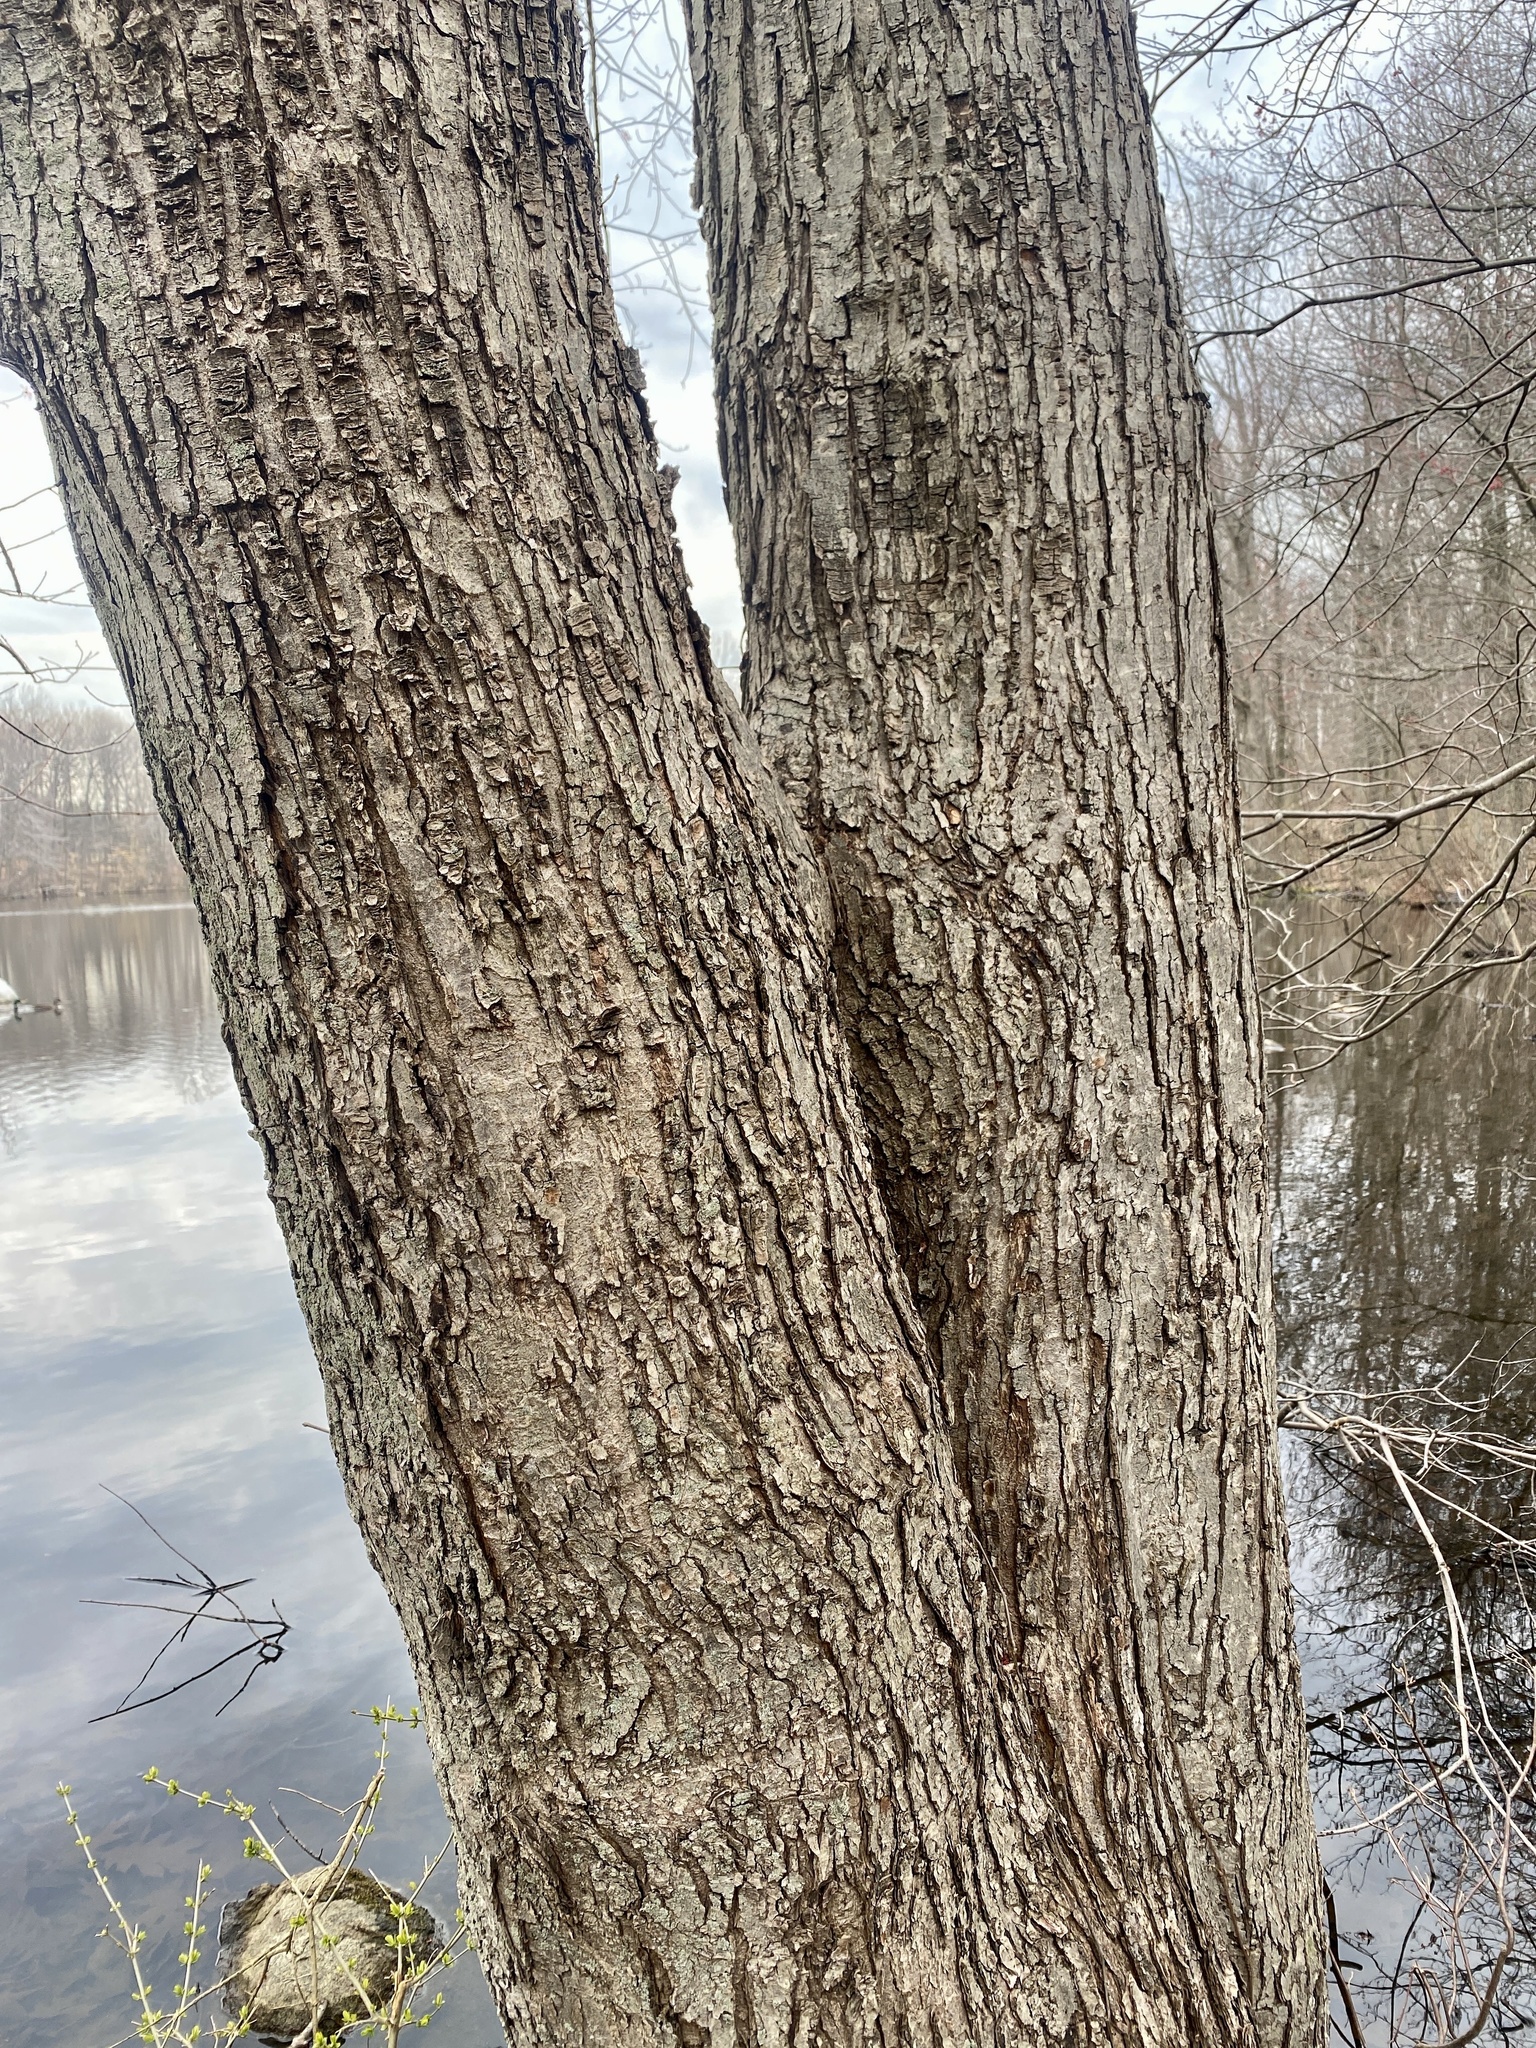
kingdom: Plantae
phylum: Tracheophyta
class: Magnoliopsida
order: Sapindales
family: Sapindaceae
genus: Acer
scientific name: Acer rubrum
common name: Red maple
